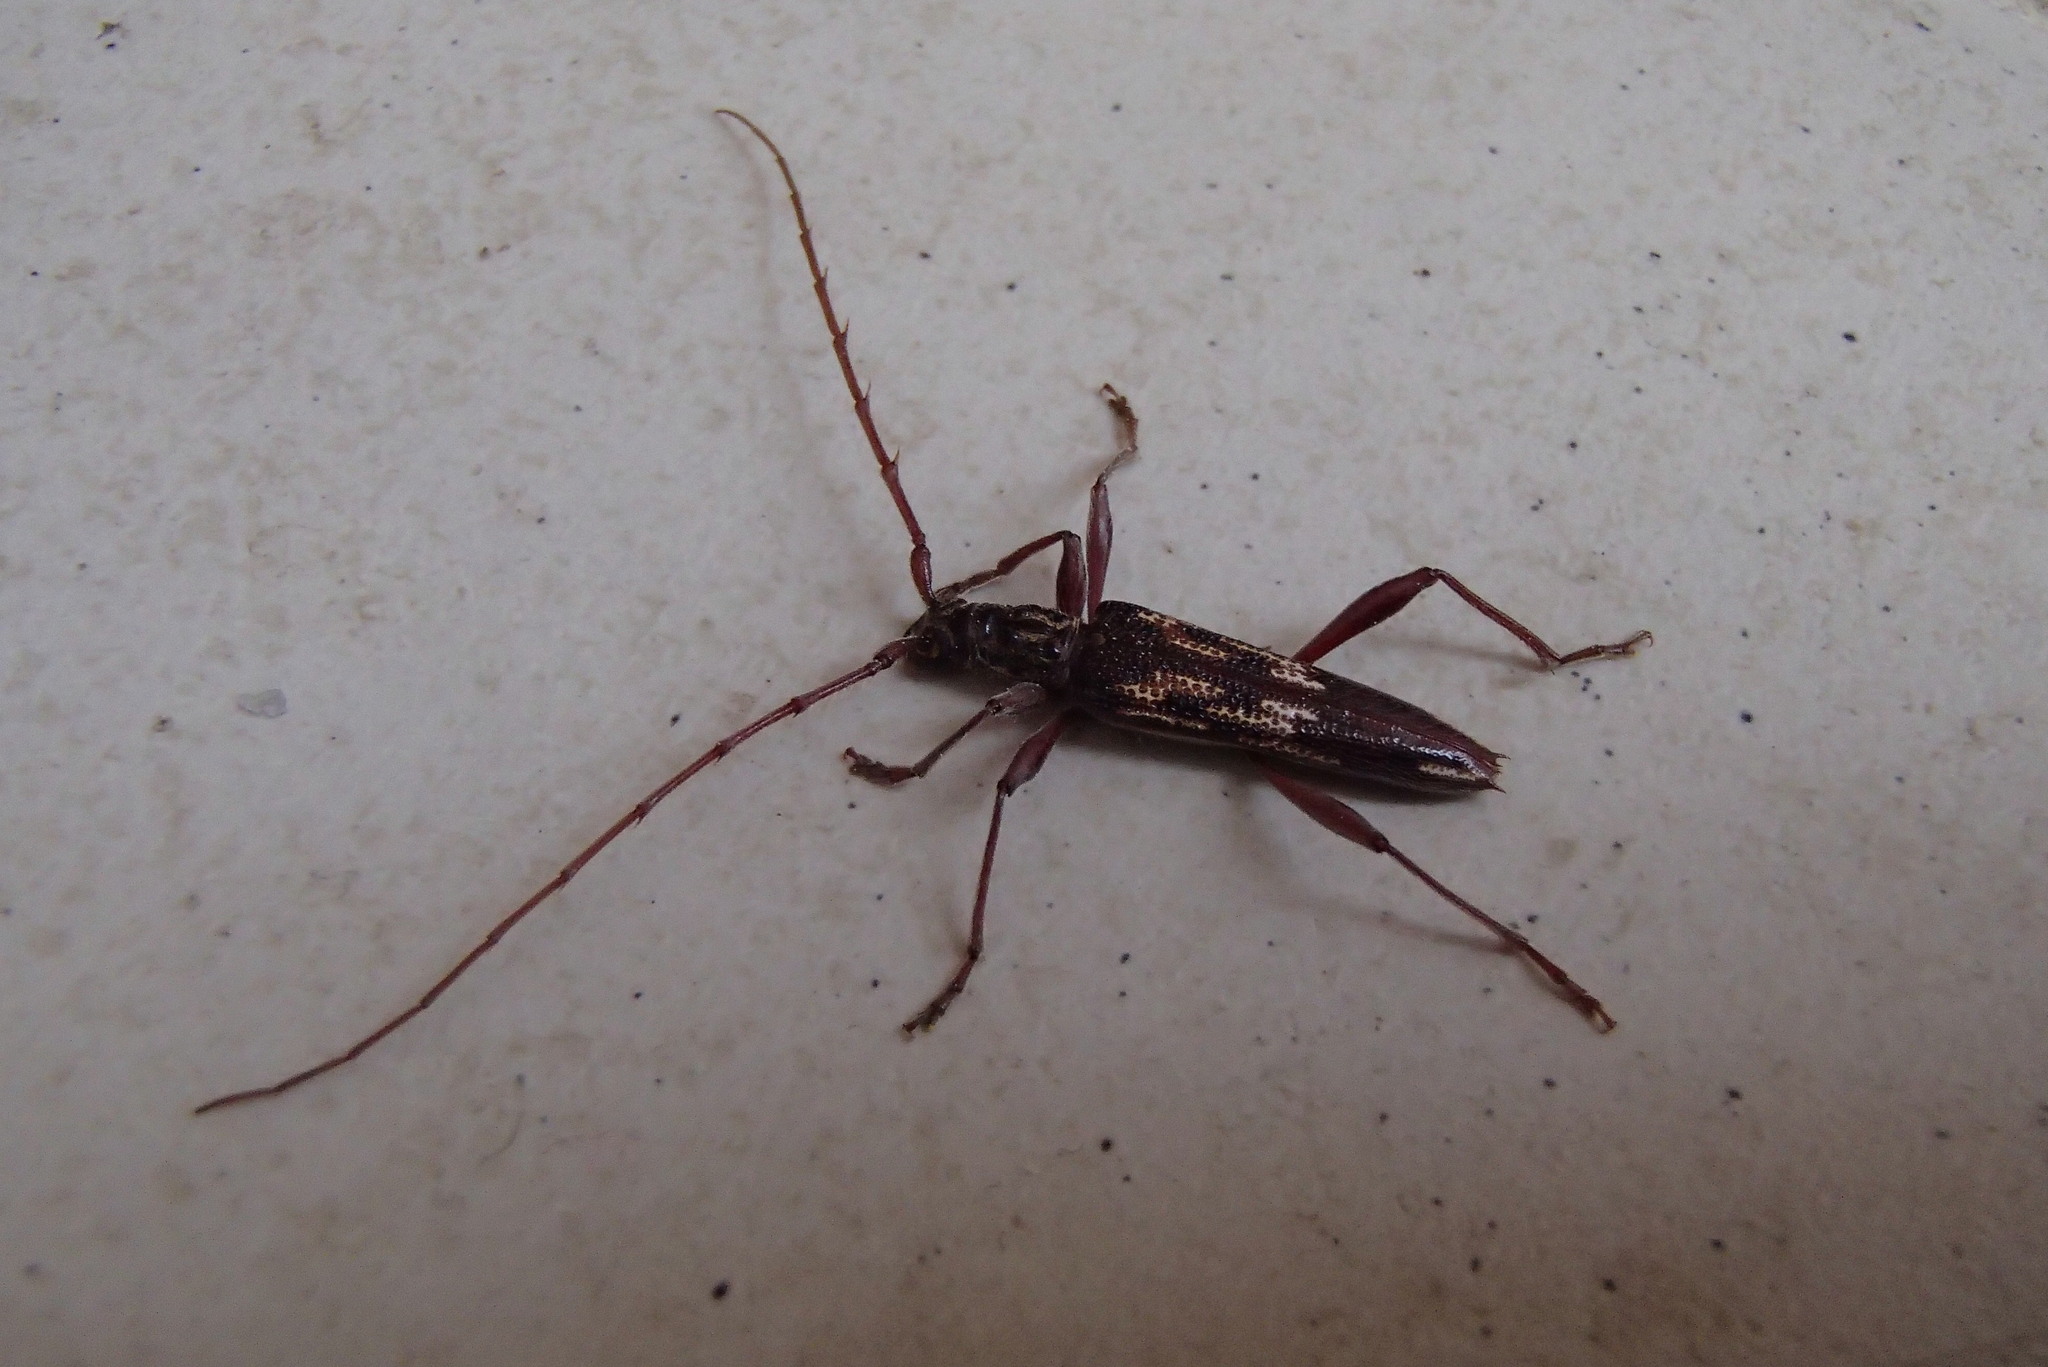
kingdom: Animalia
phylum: Arthropoda
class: Insecta
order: Coleoptera
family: Cerambycidae
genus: Coptocercus
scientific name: Coptocercus rubripes
